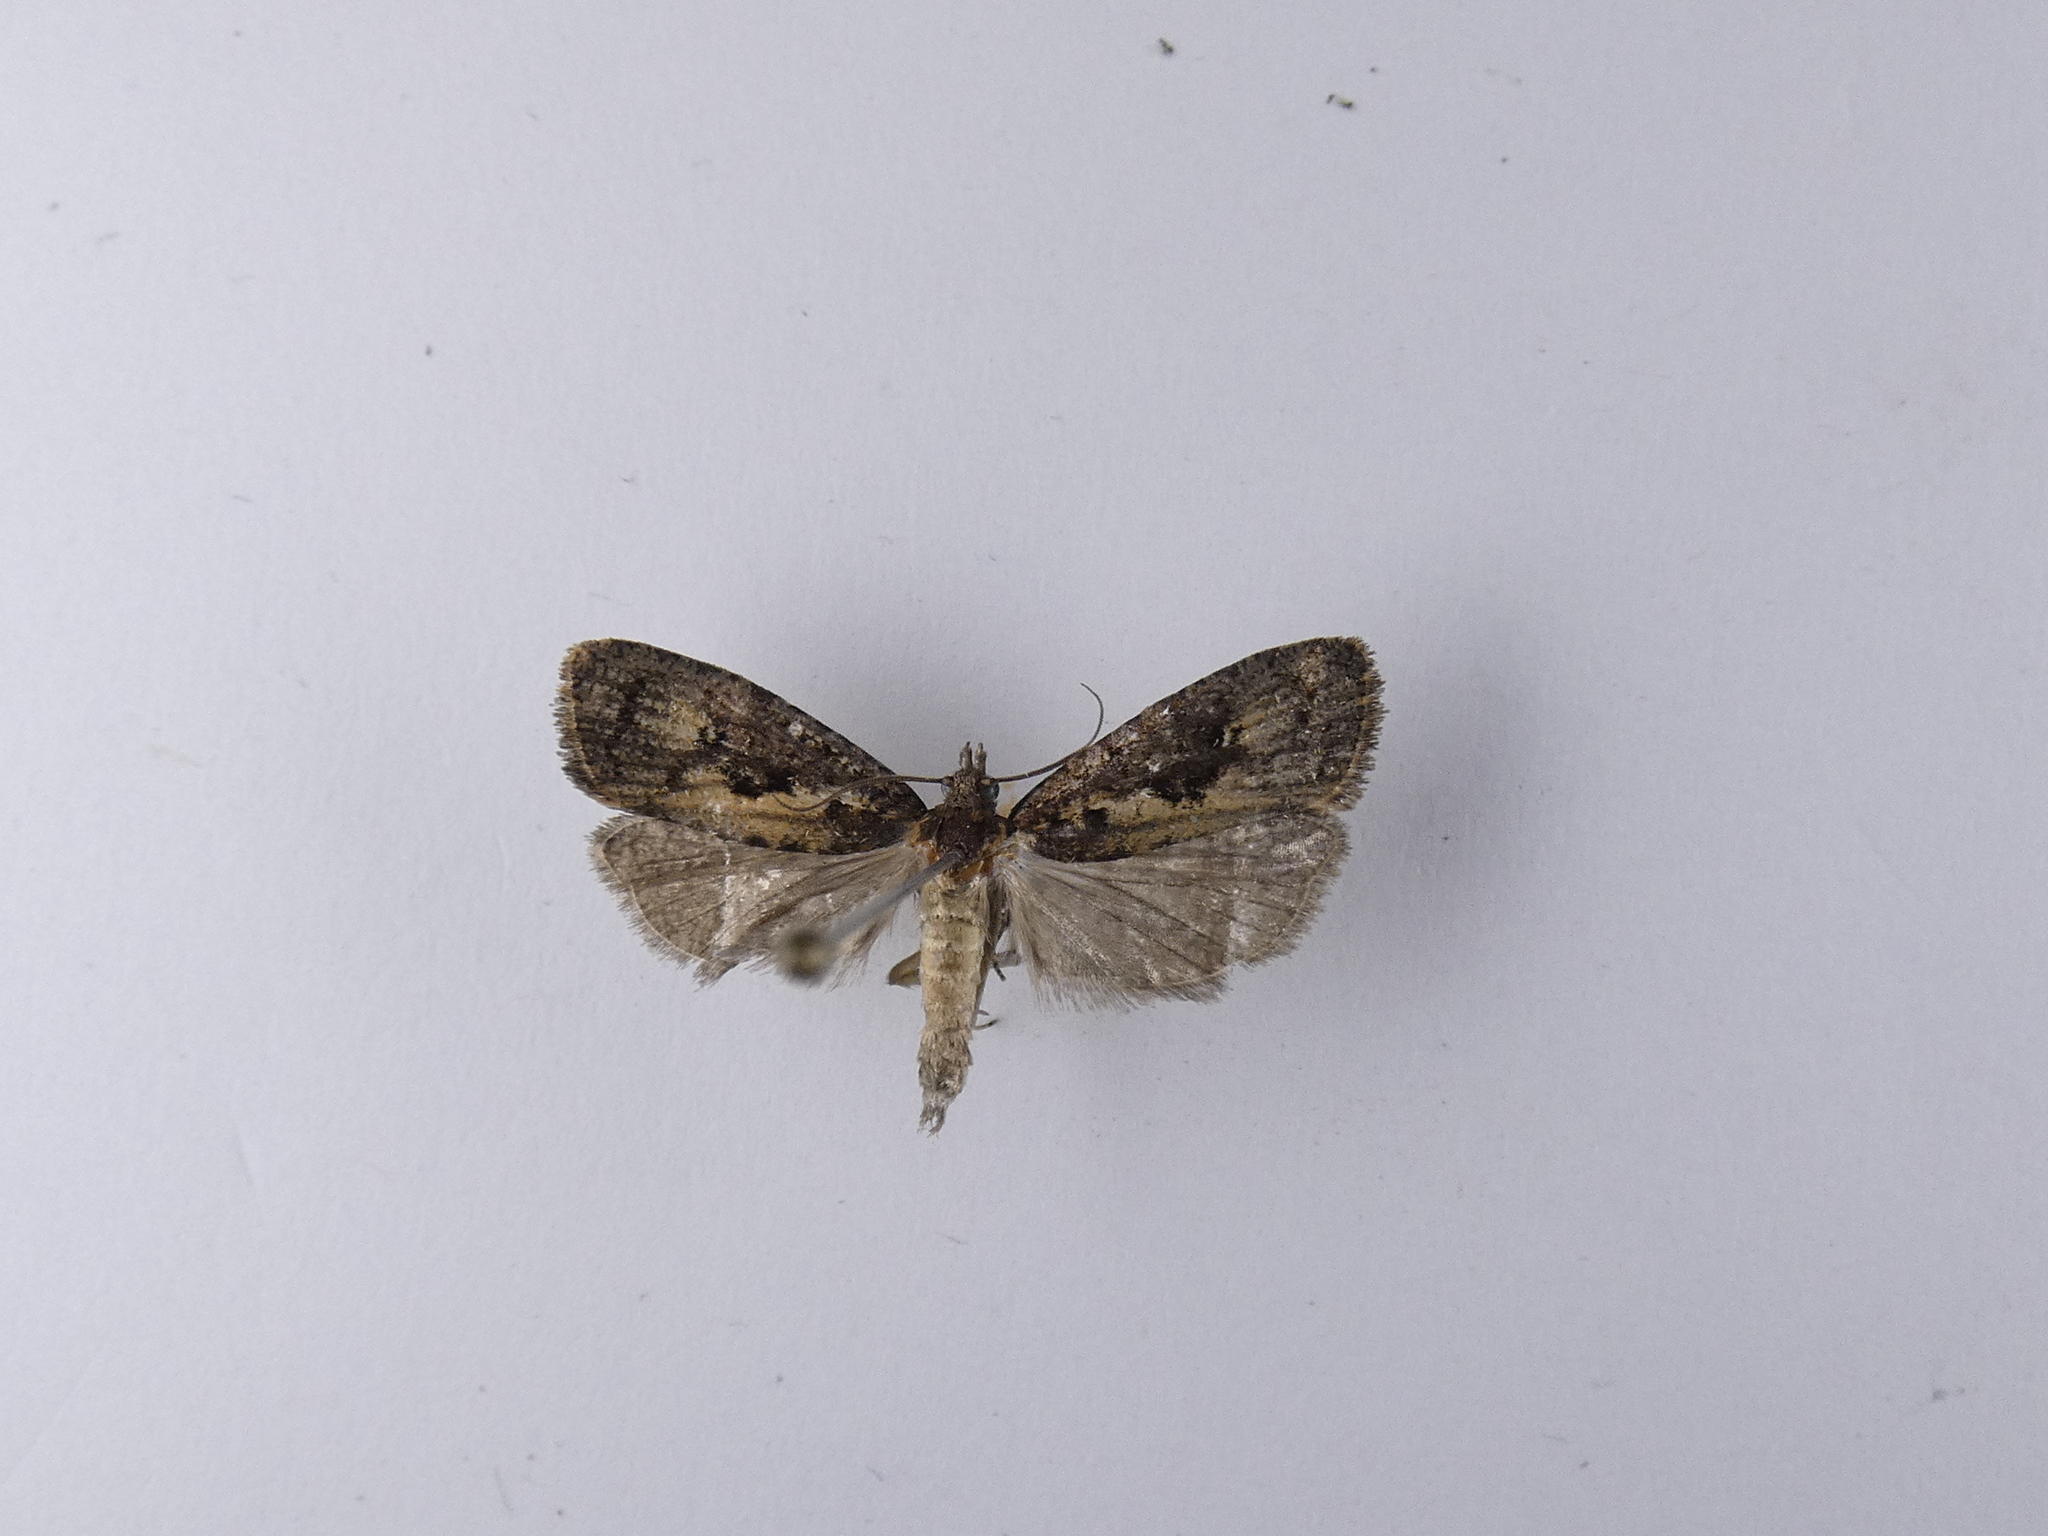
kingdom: Animalia
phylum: Arthropoda
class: Insecta
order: Lepidoptera
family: Tortricidae
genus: Cryptaspasma
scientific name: Cryptaspasma querula
